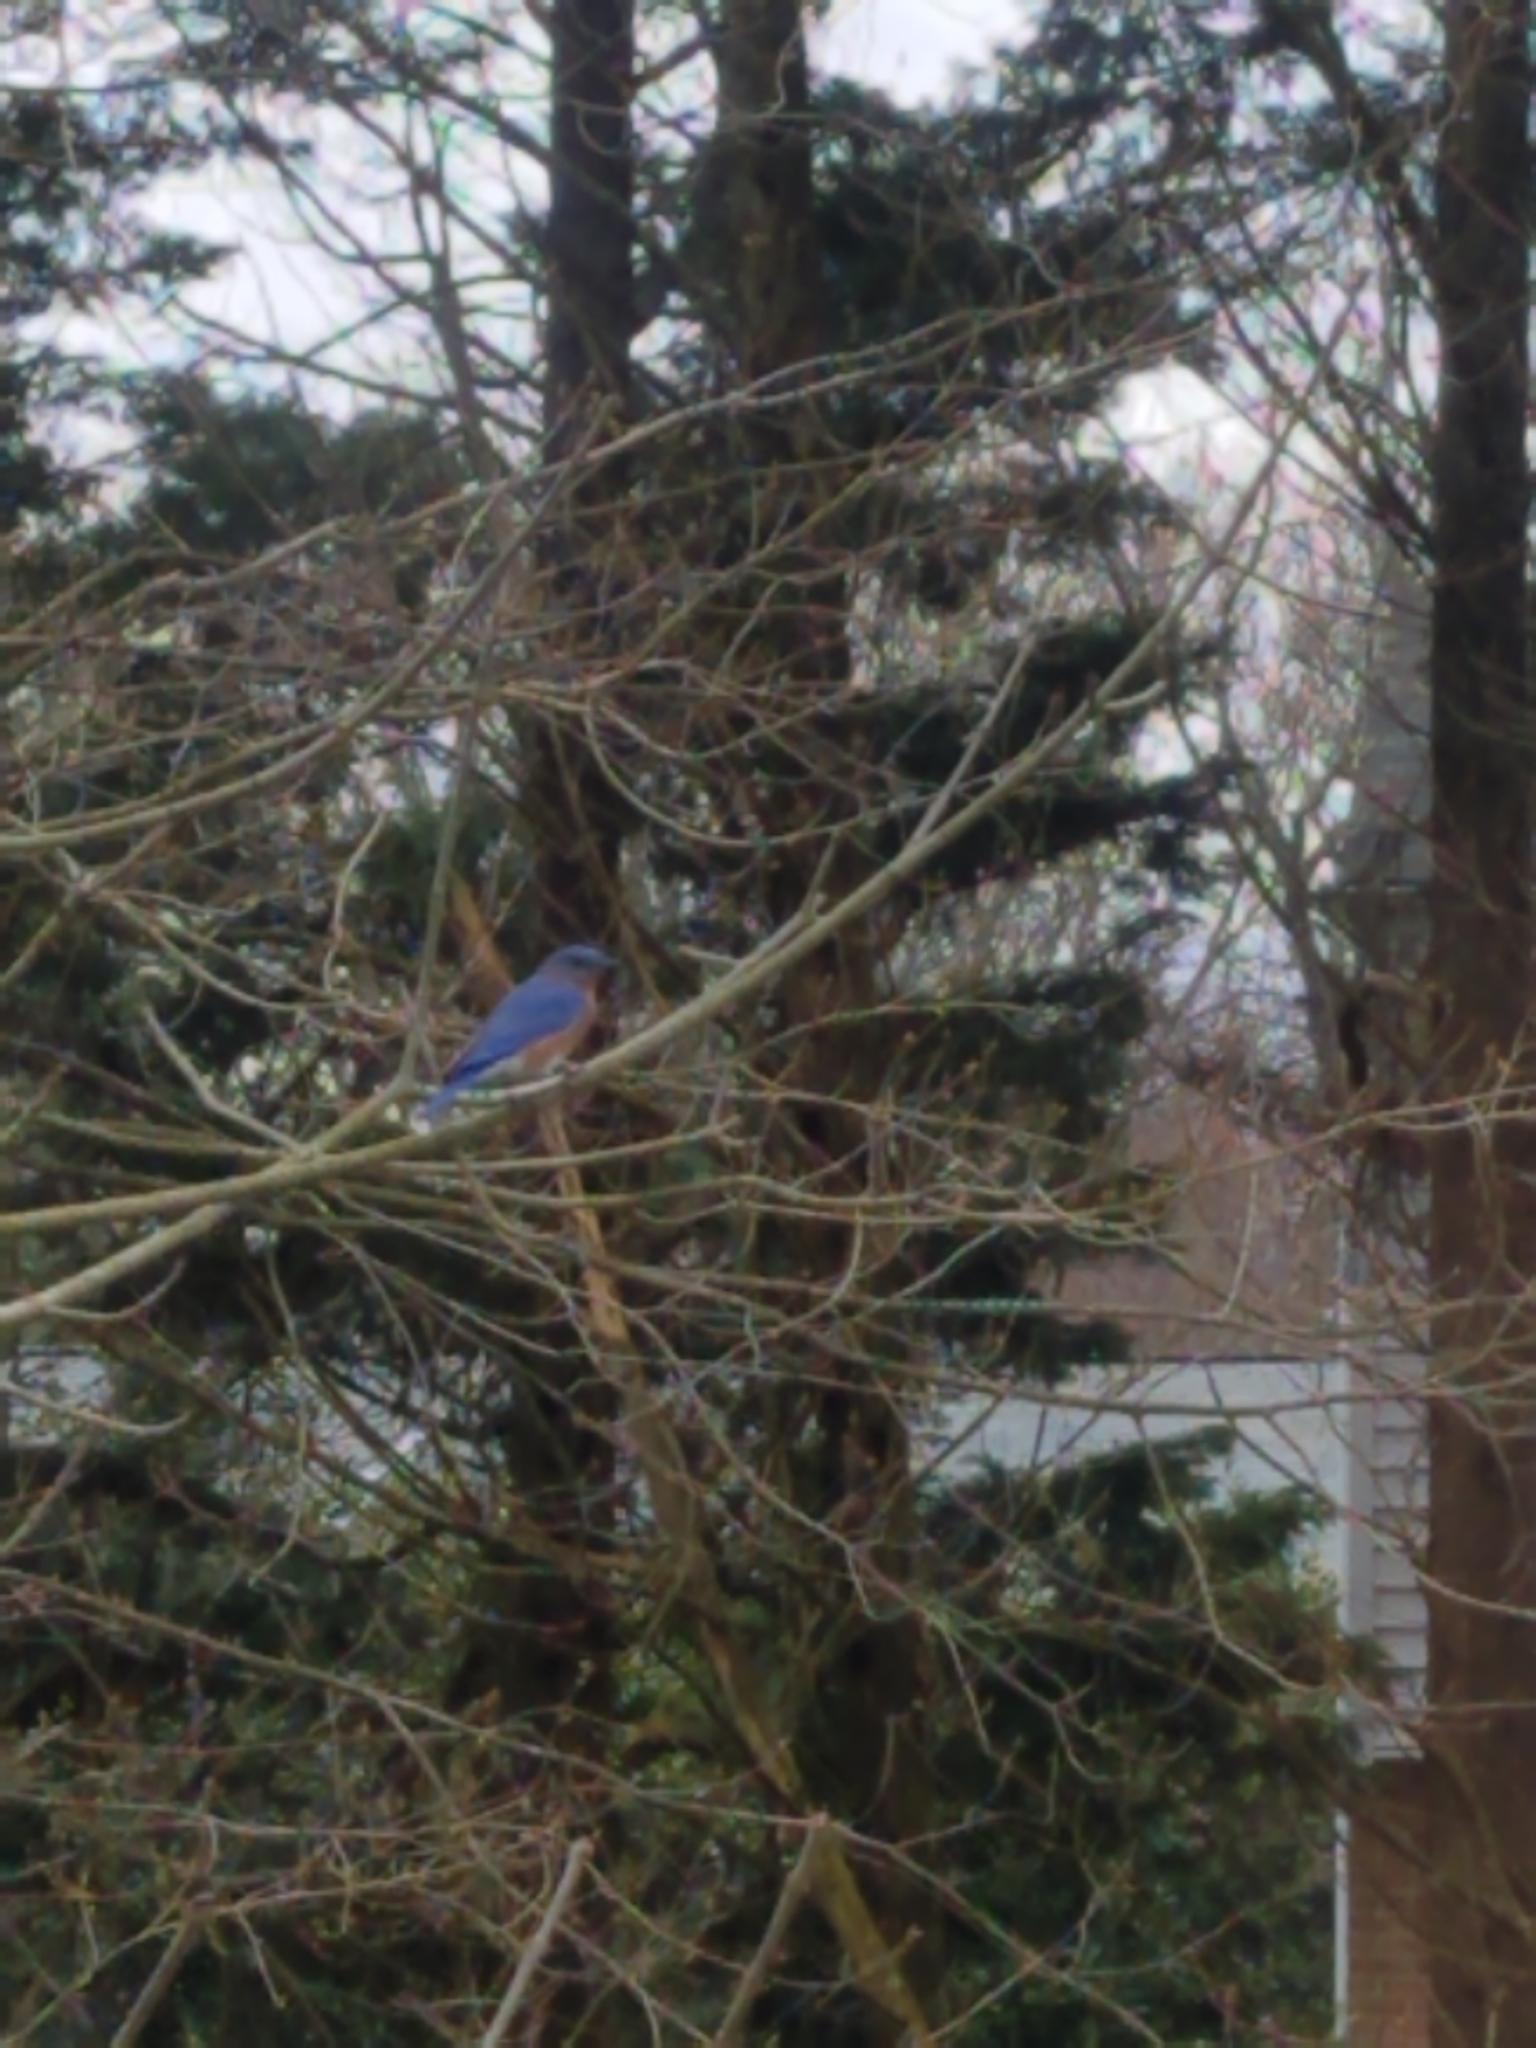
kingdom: Animalia
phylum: Chordata
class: Aves
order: Passeriformes
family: Turdidae
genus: Sialia
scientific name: Sialia sialis
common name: Eastern bluebird
